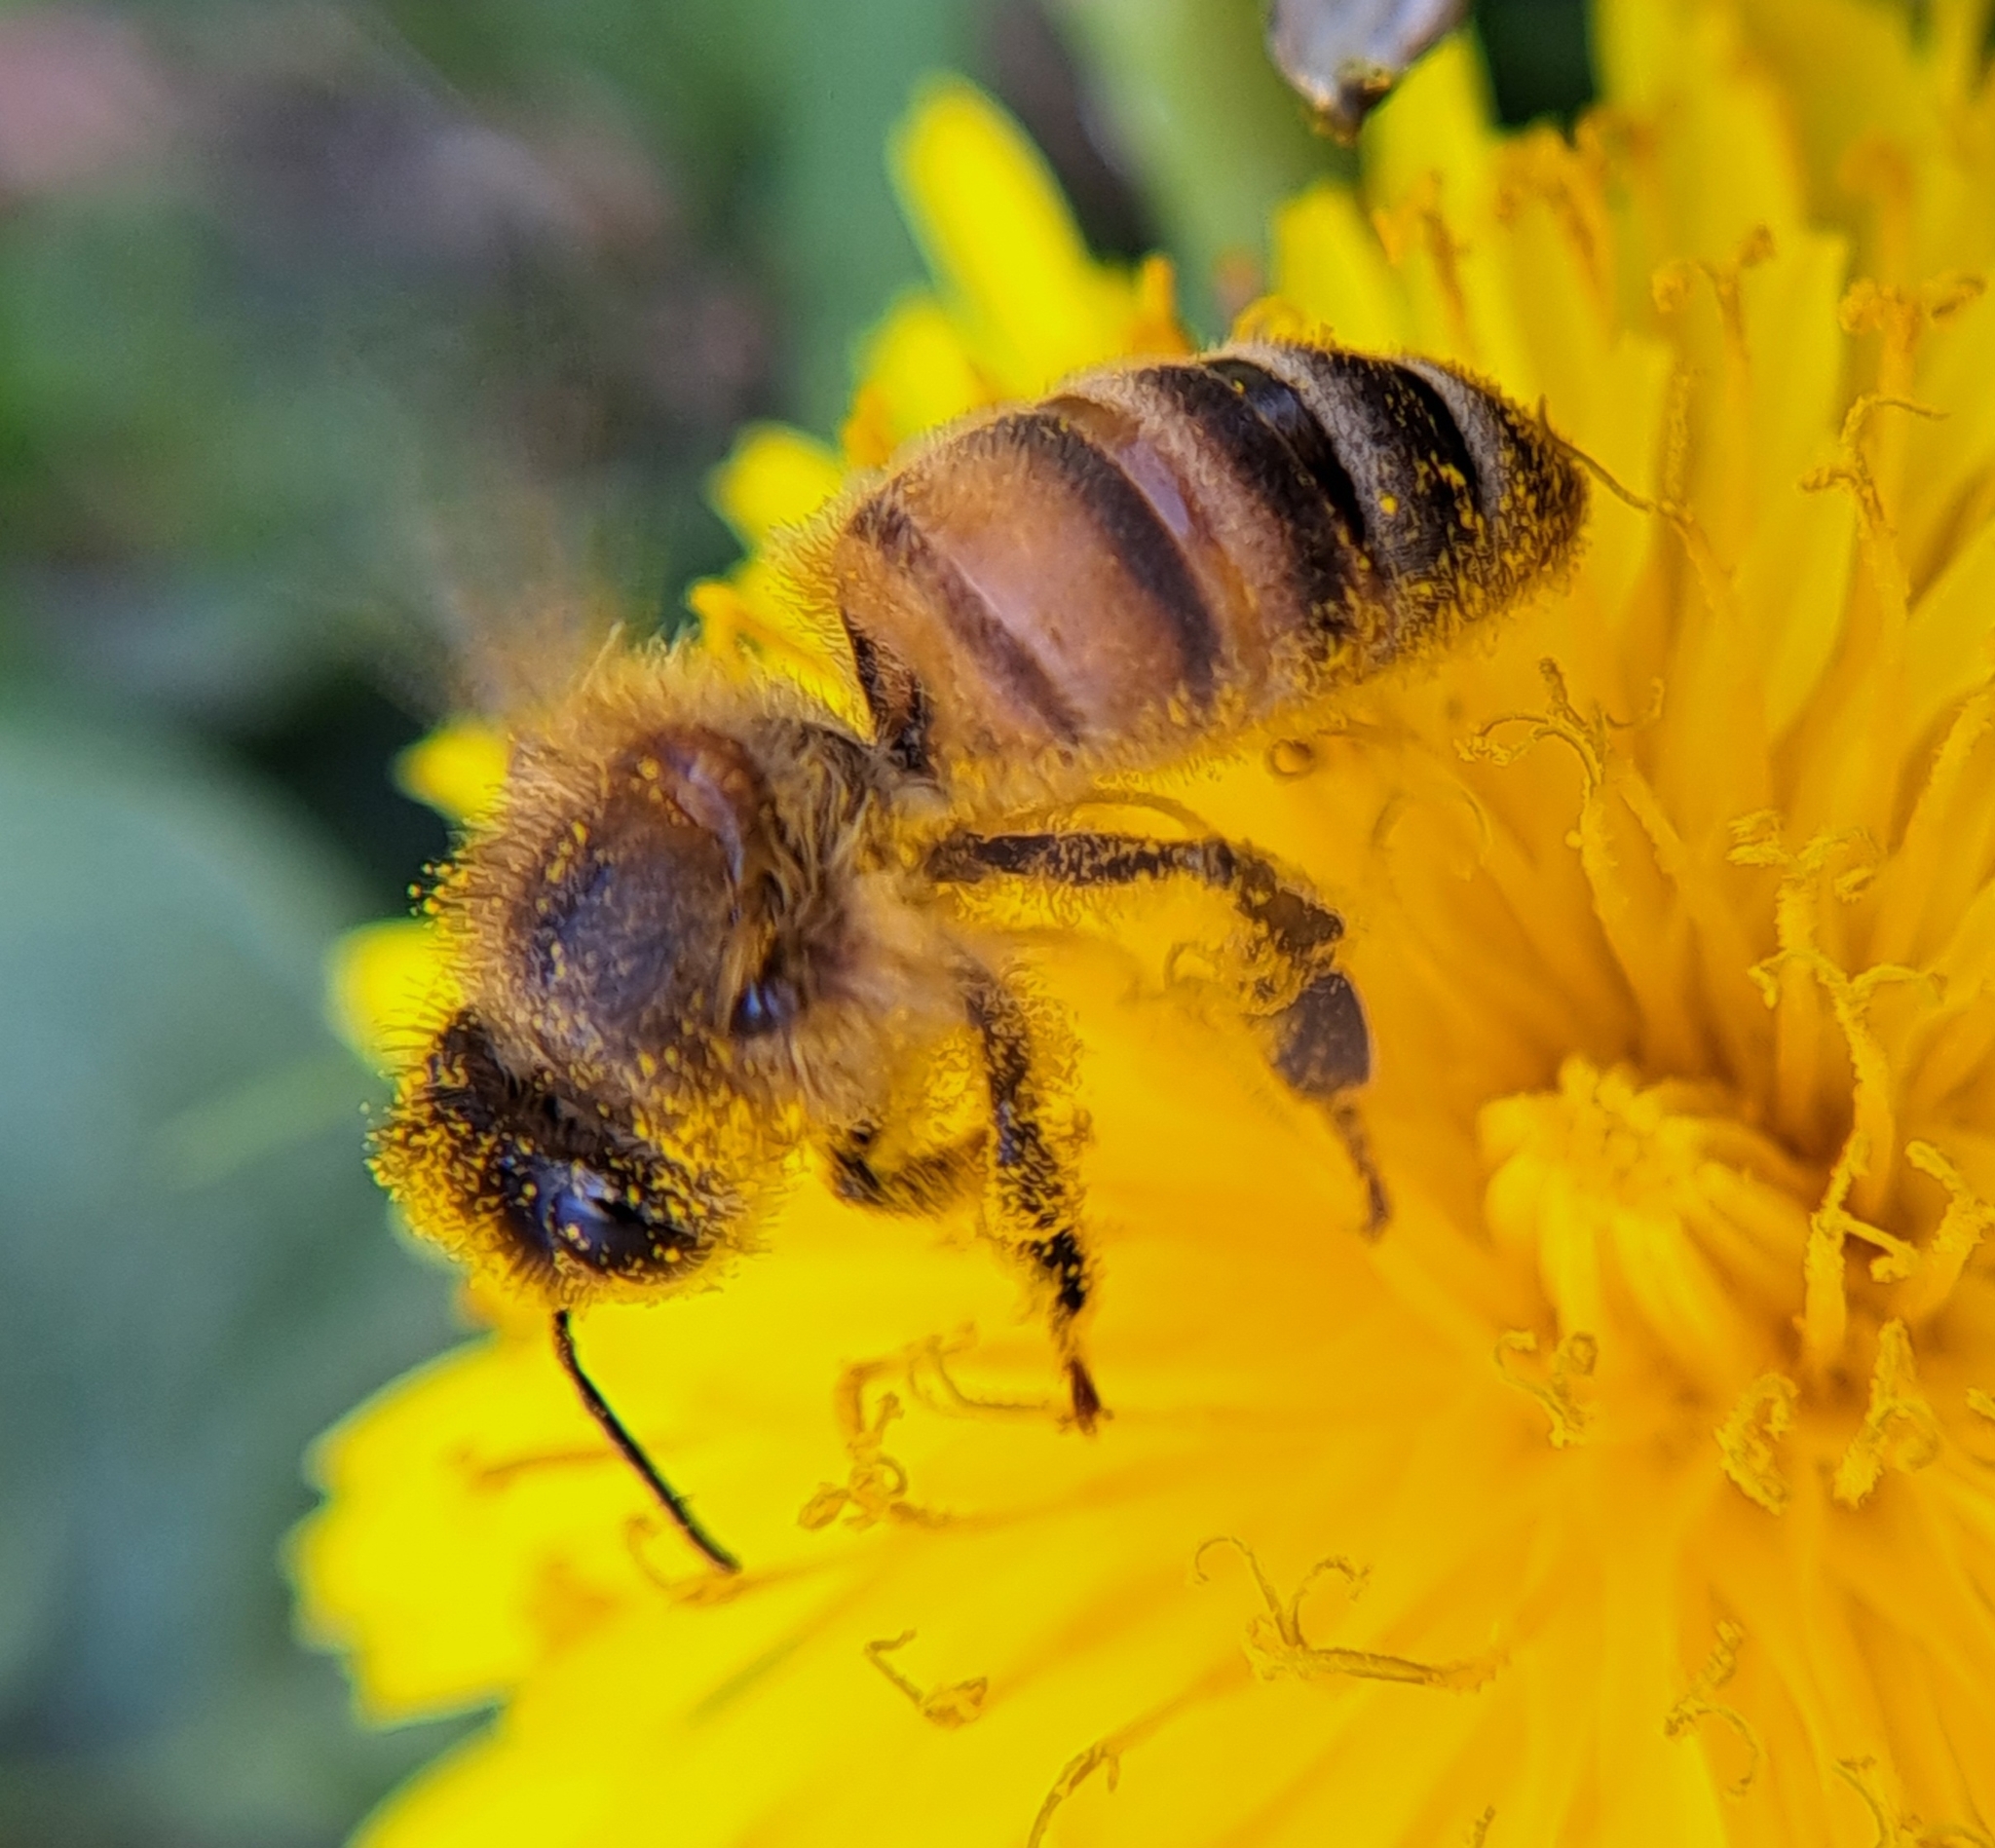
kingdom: Animalia
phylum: Arthropoda
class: Insecta
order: Hymenoptera
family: Apidae
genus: Apis
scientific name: Apis mellifera
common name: Honey bee
